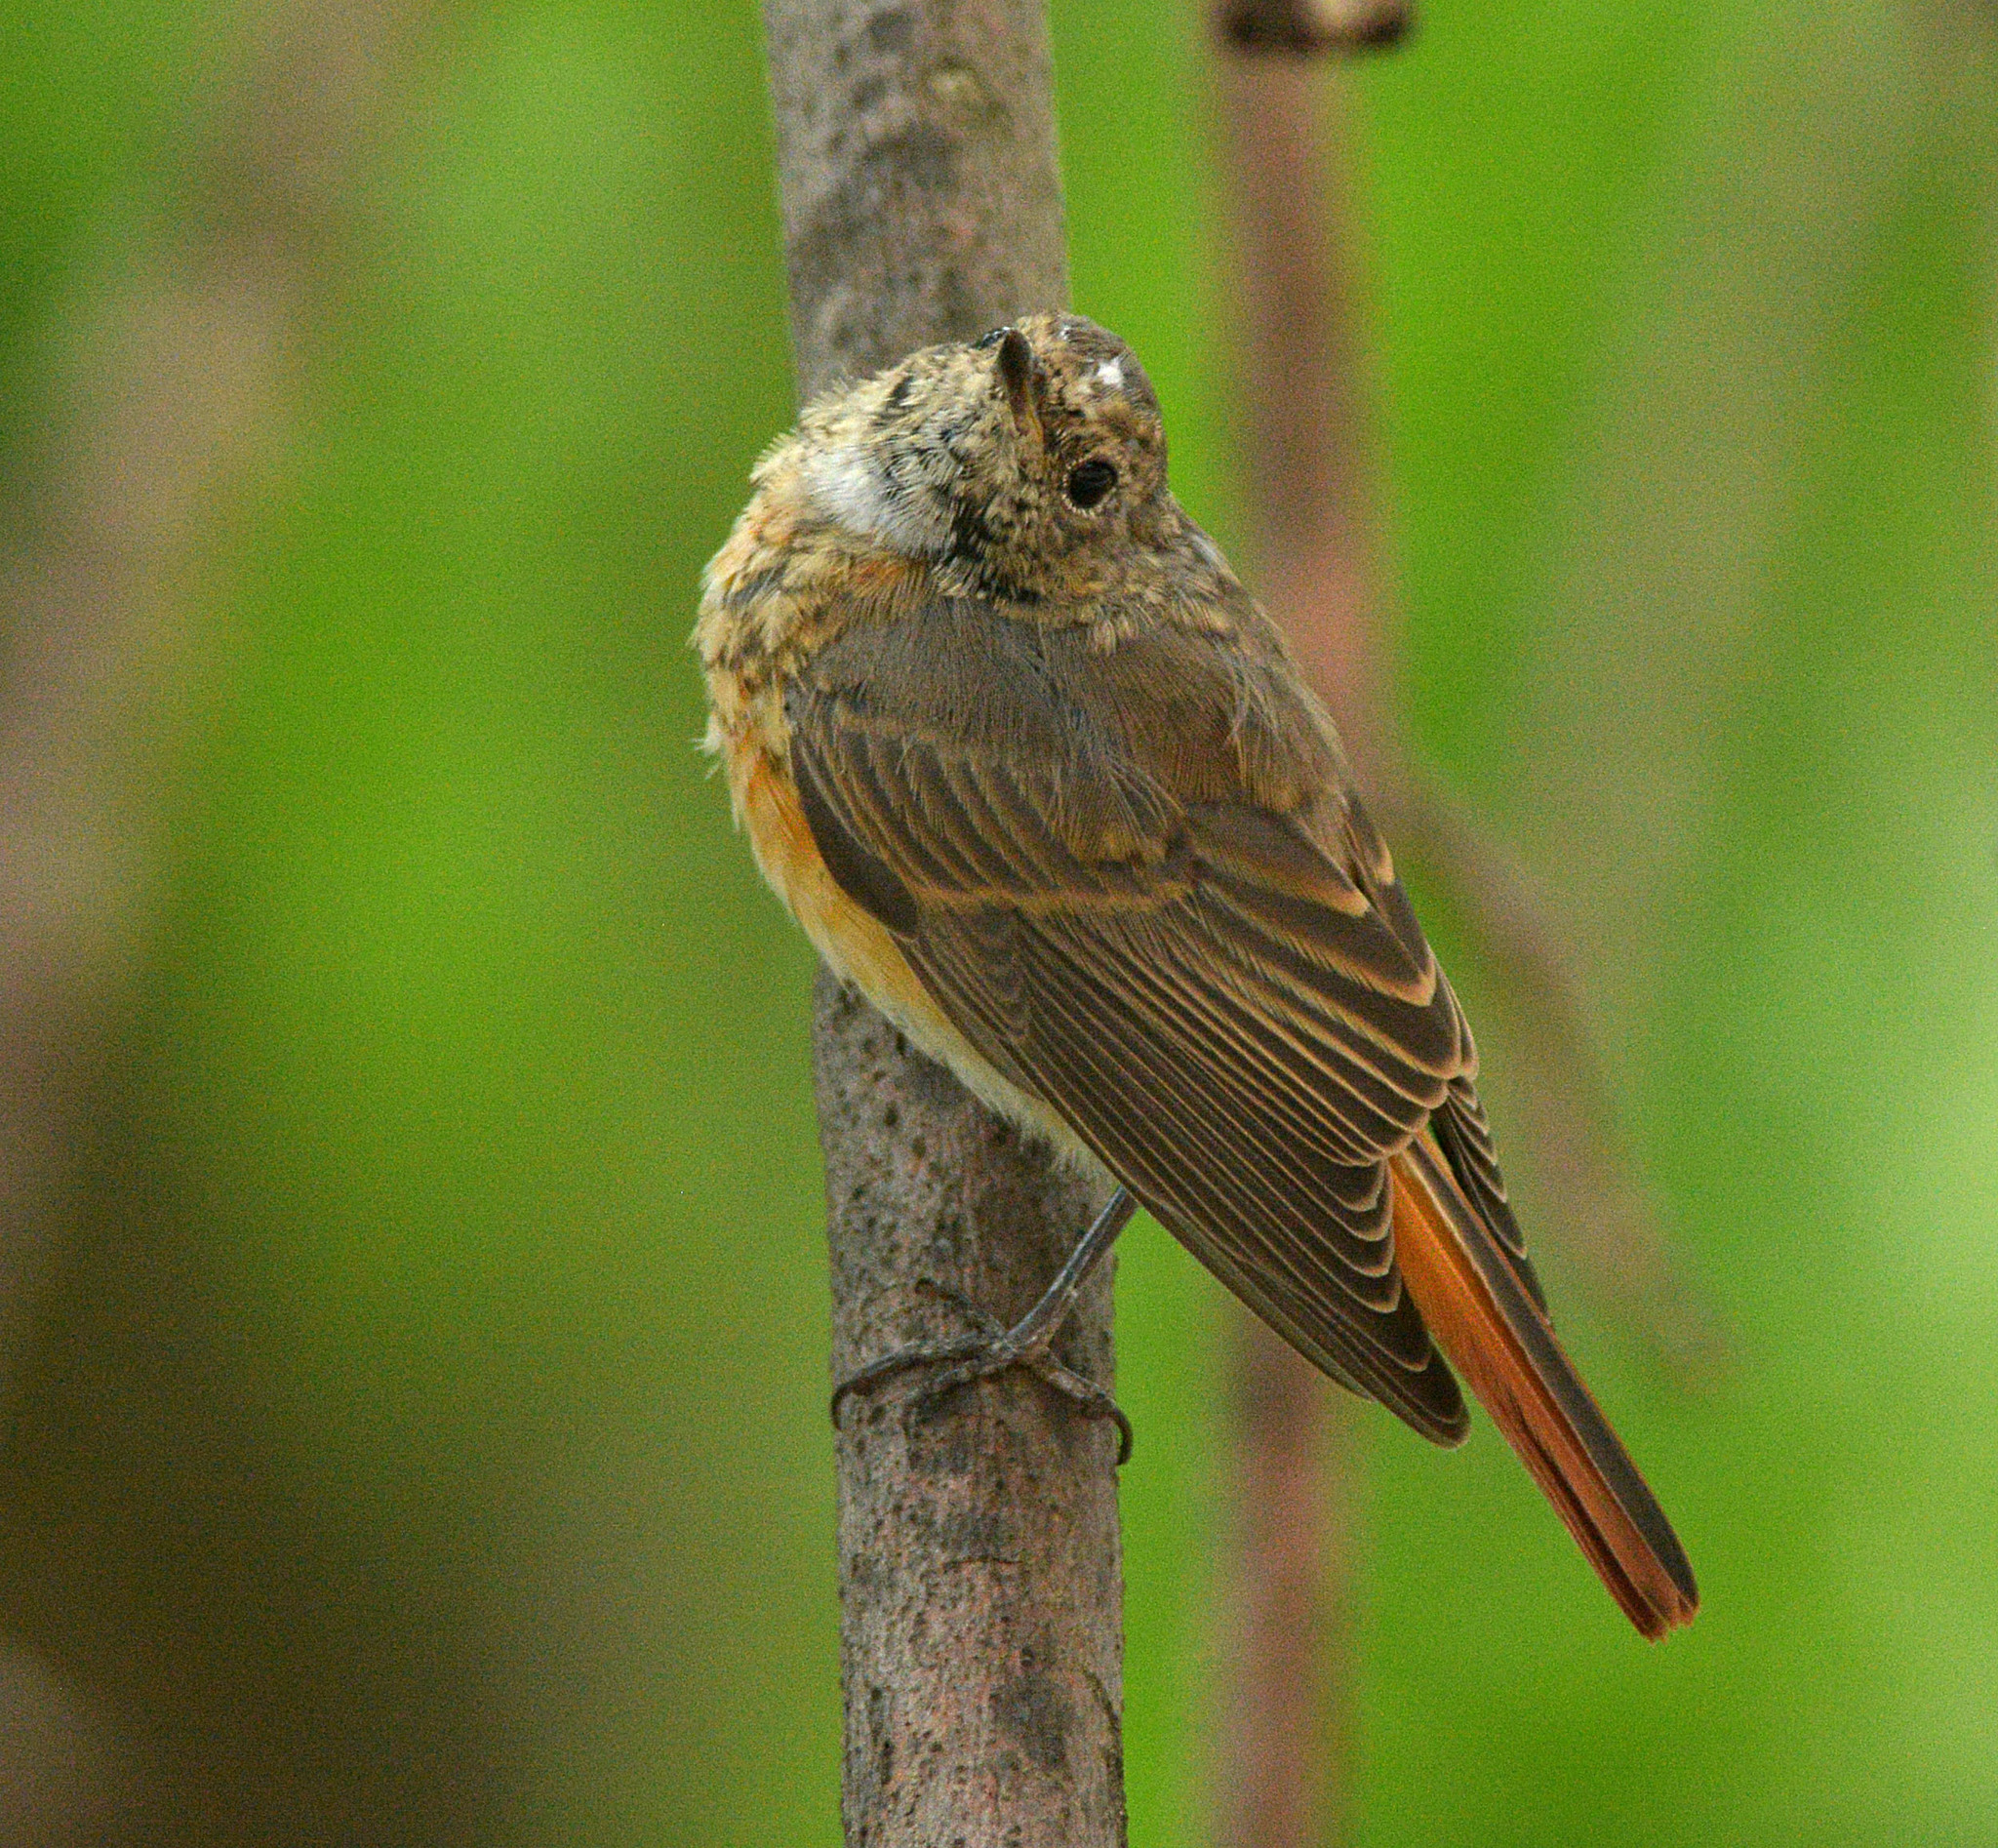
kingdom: Animalia
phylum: Chordata
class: Aves
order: Passeriformes
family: Muscicapidae
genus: Phoenicurus
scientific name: Phoenicurus phoenicurus
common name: Common redstart
